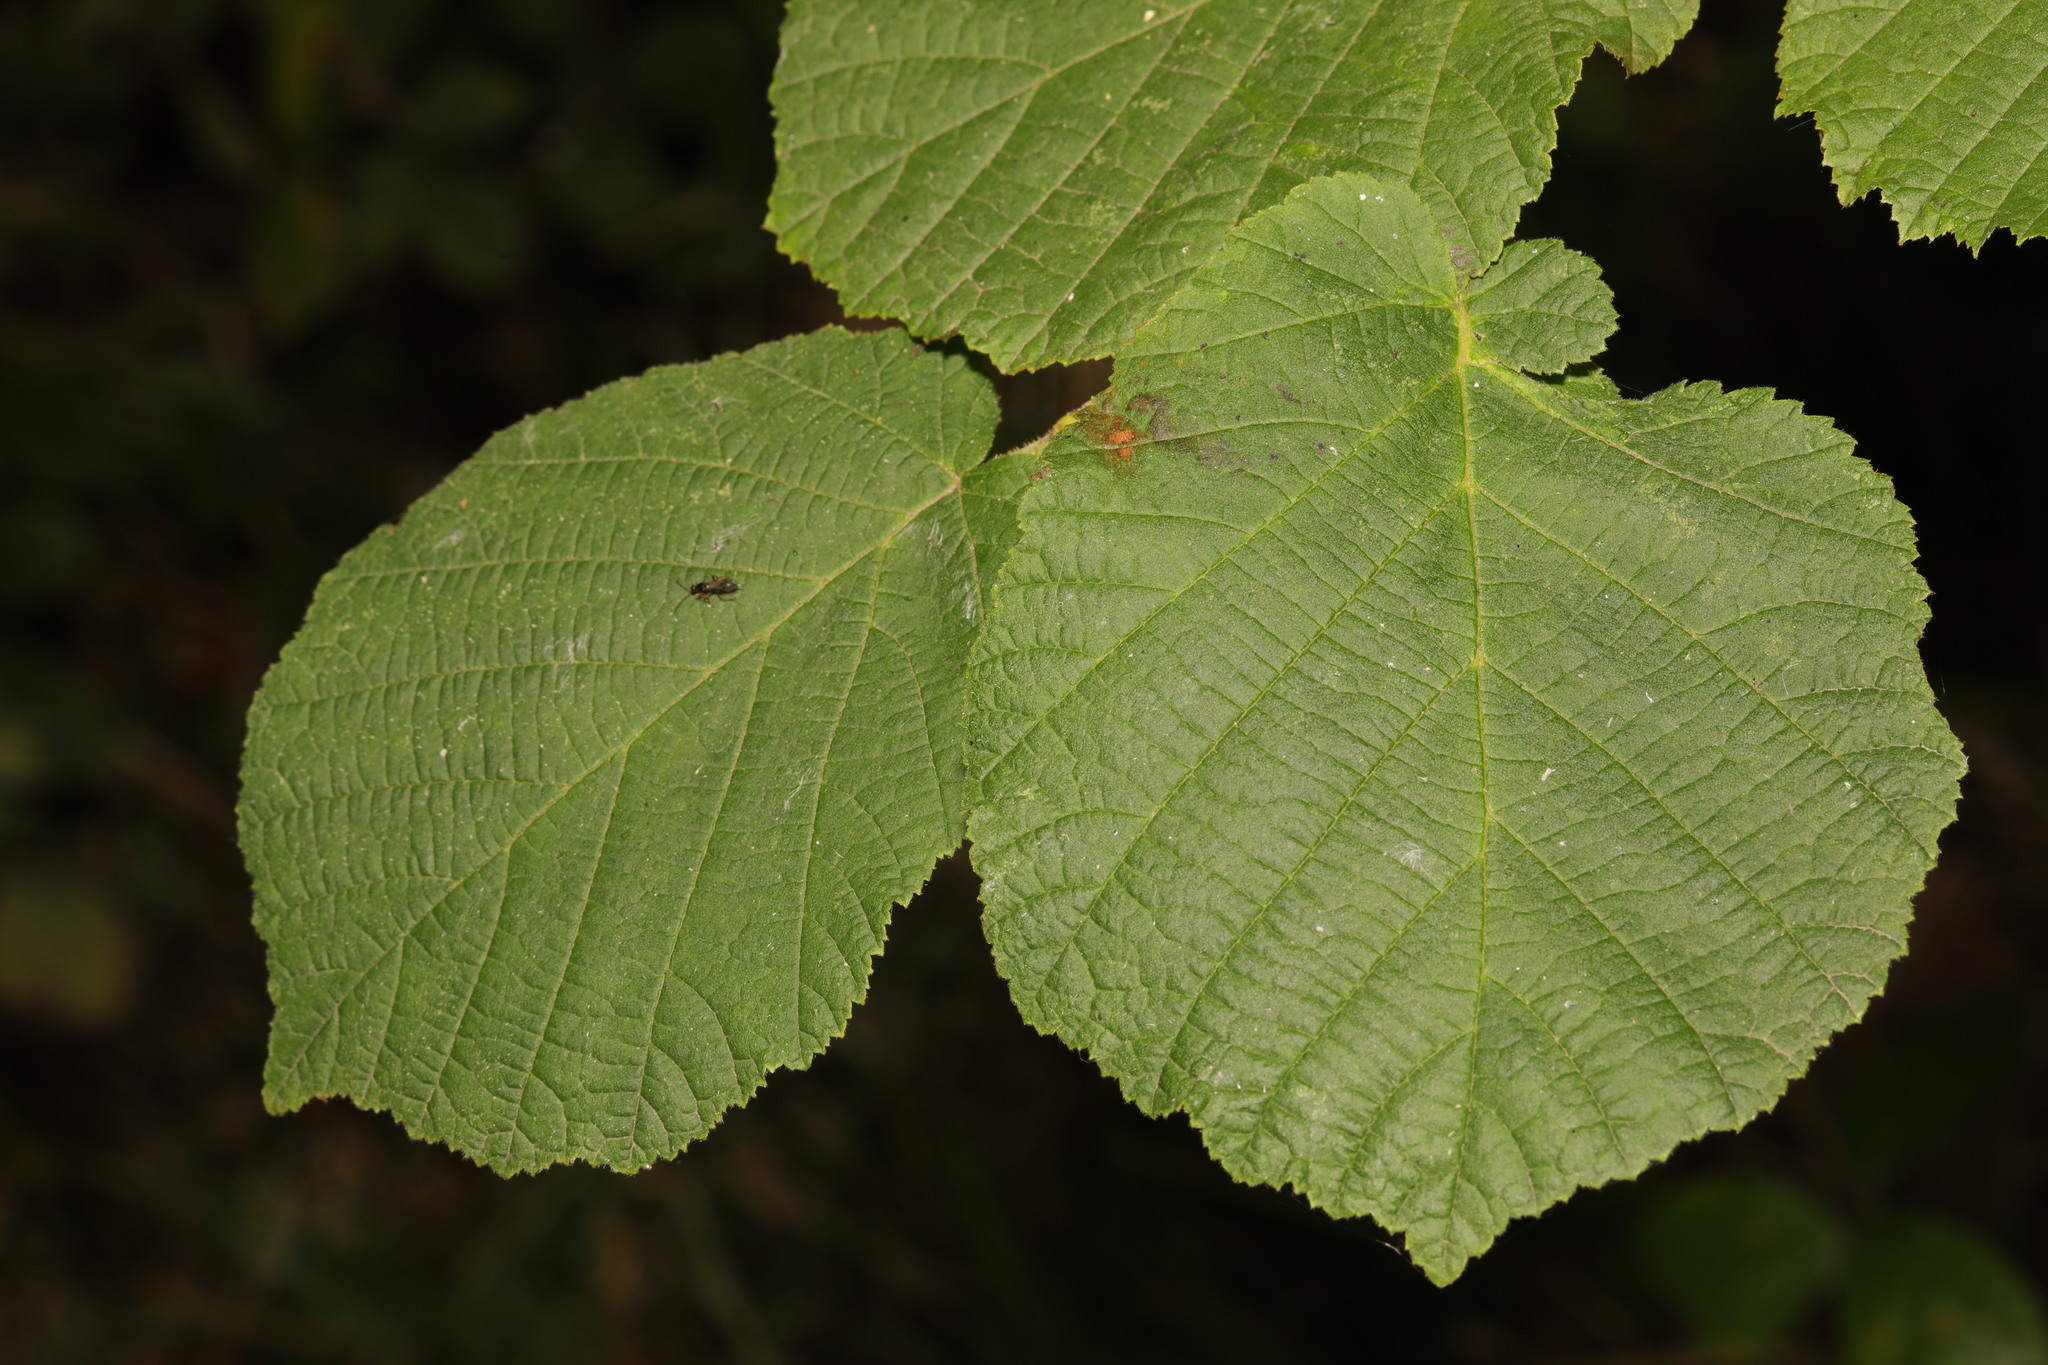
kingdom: Plantae
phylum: Tracheophyta
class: Magnoliopsida
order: Fagales
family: Betulaceae
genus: Corylus
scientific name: Corylus avellana
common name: European hazel
